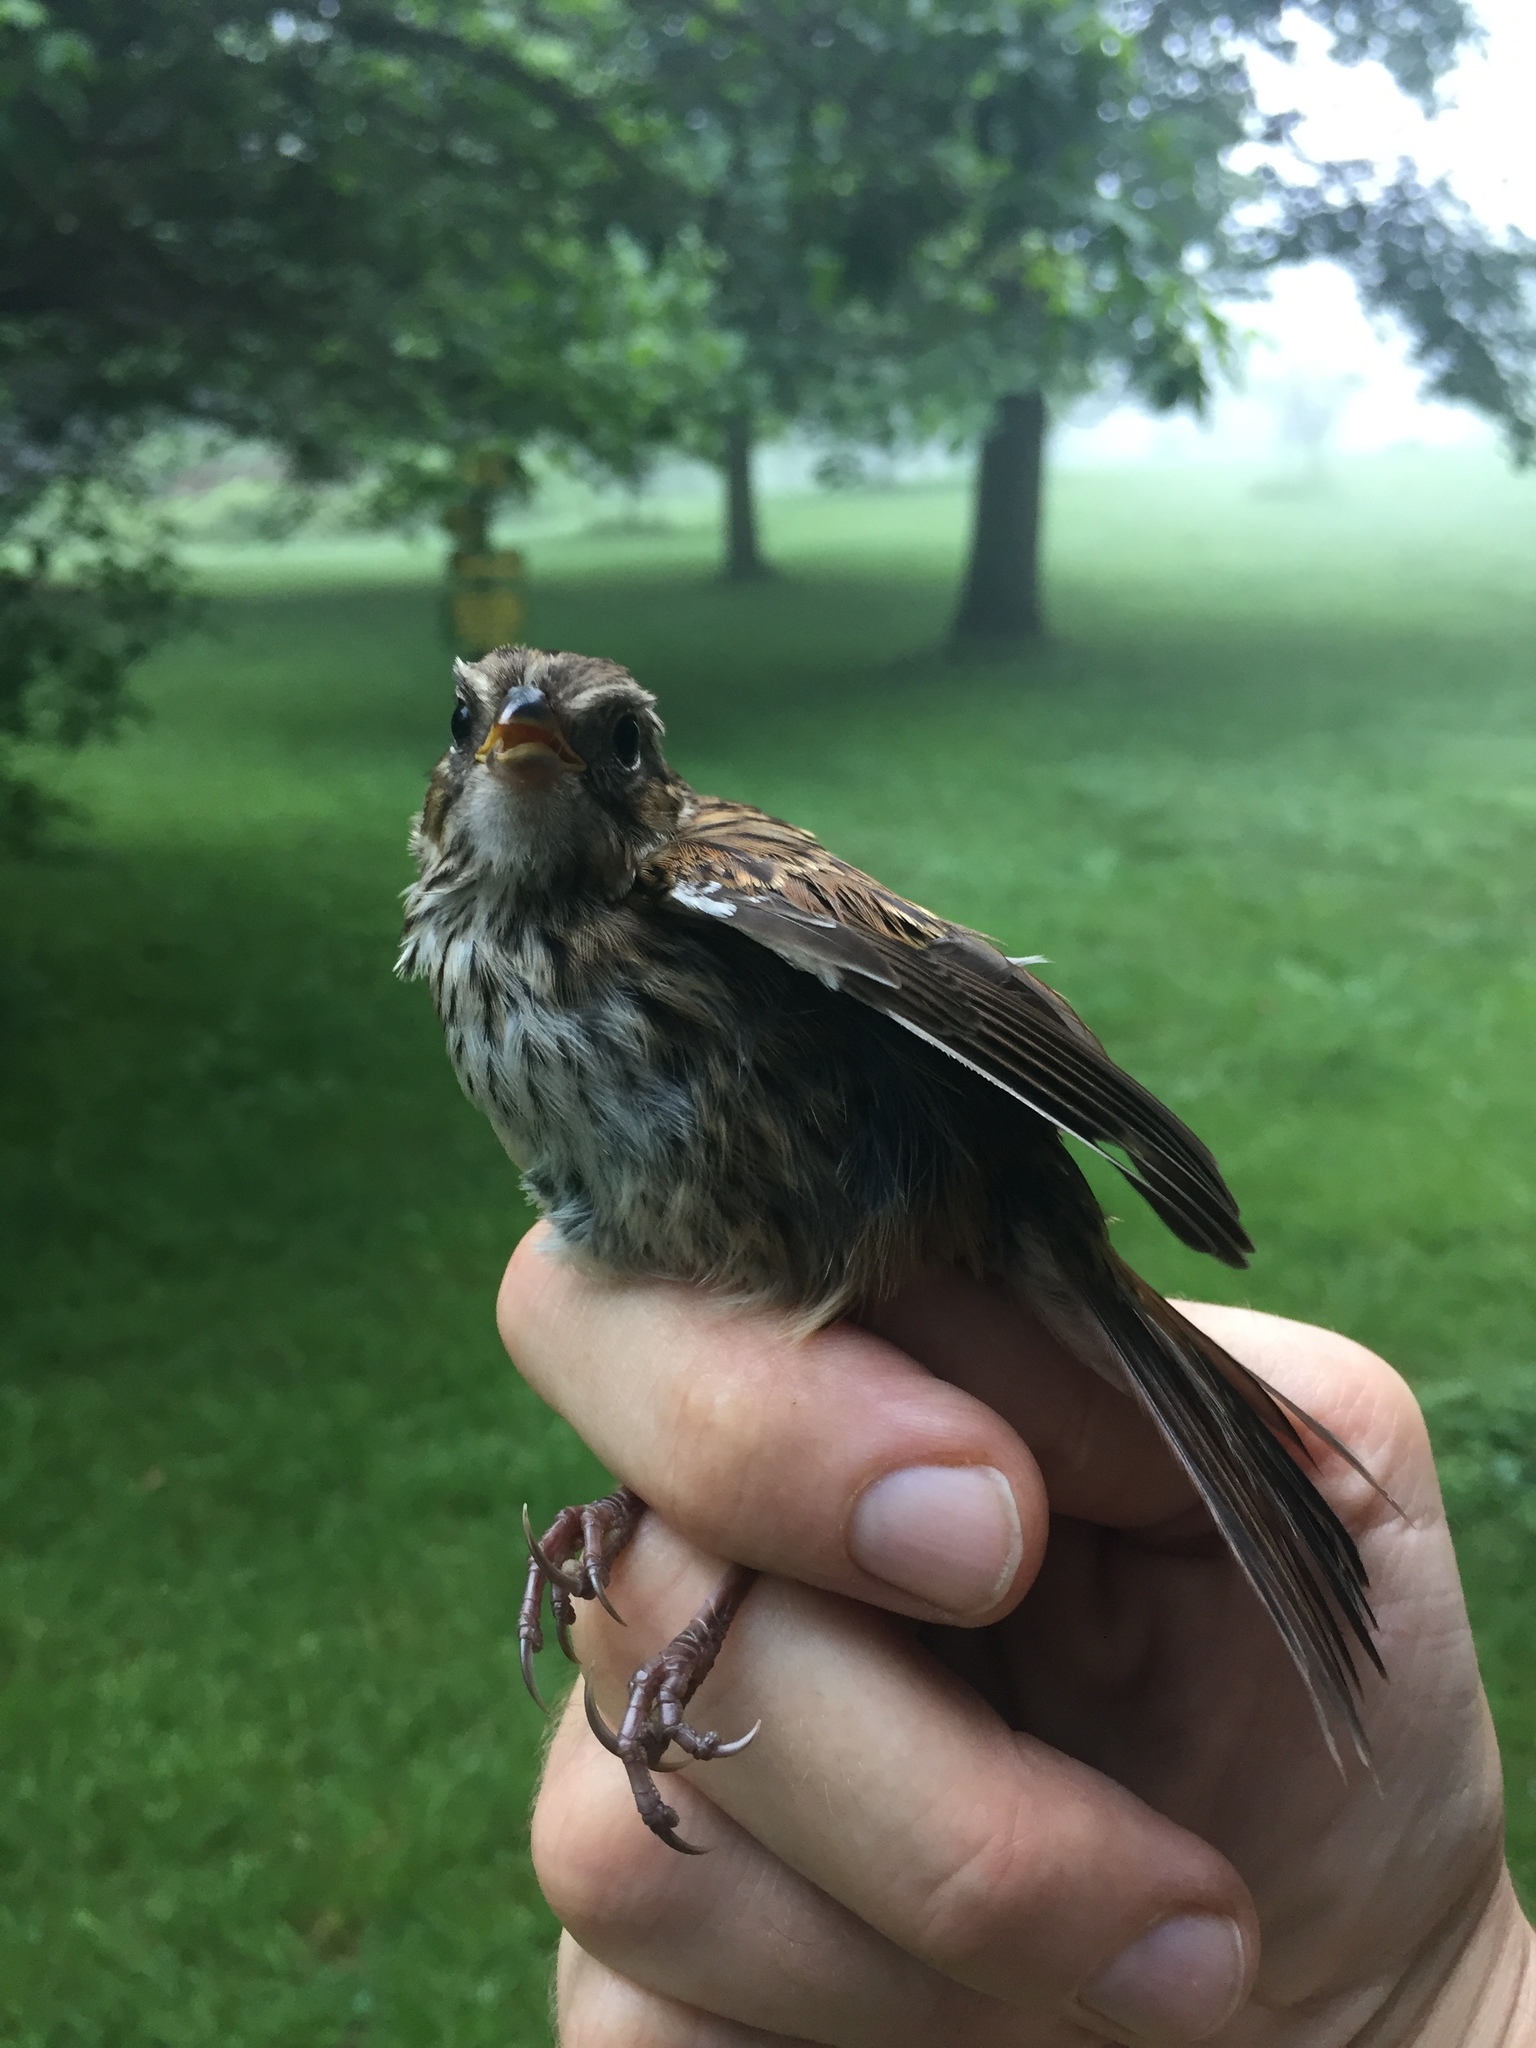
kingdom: Animalia
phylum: Chordata
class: Aves
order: Passeriformes
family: Passerellidae
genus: Melospiza
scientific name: Melospiza melodia
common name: Song sparrow
